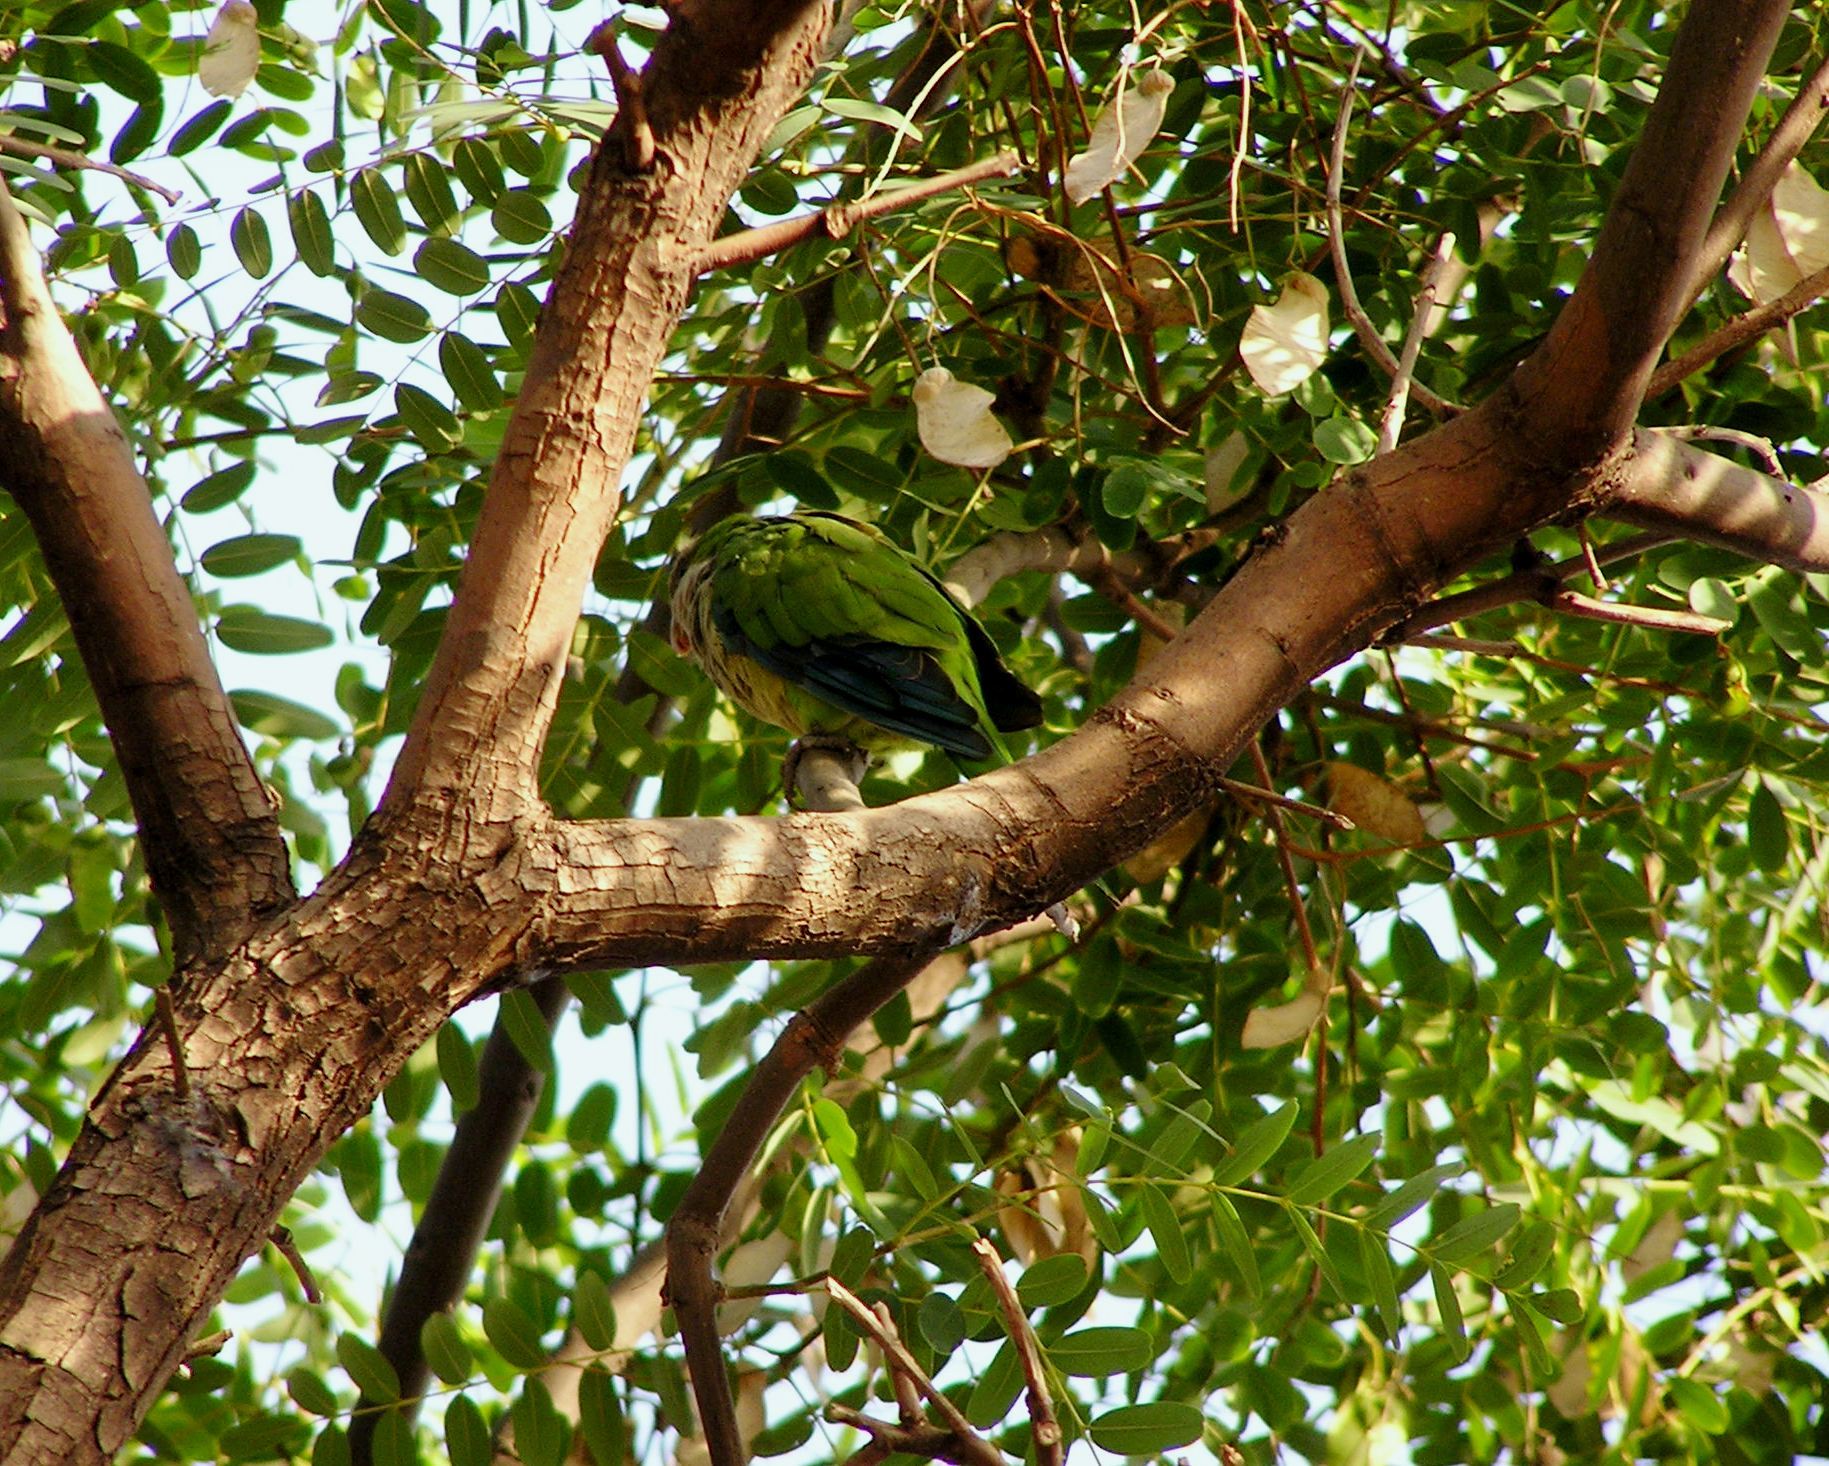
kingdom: Animalia
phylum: Chordata
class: Aves
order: Psittaciformes
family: Psittacidae
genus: Myiopsitta
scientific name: Myiopsitta monachus
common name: Monk parakeet
